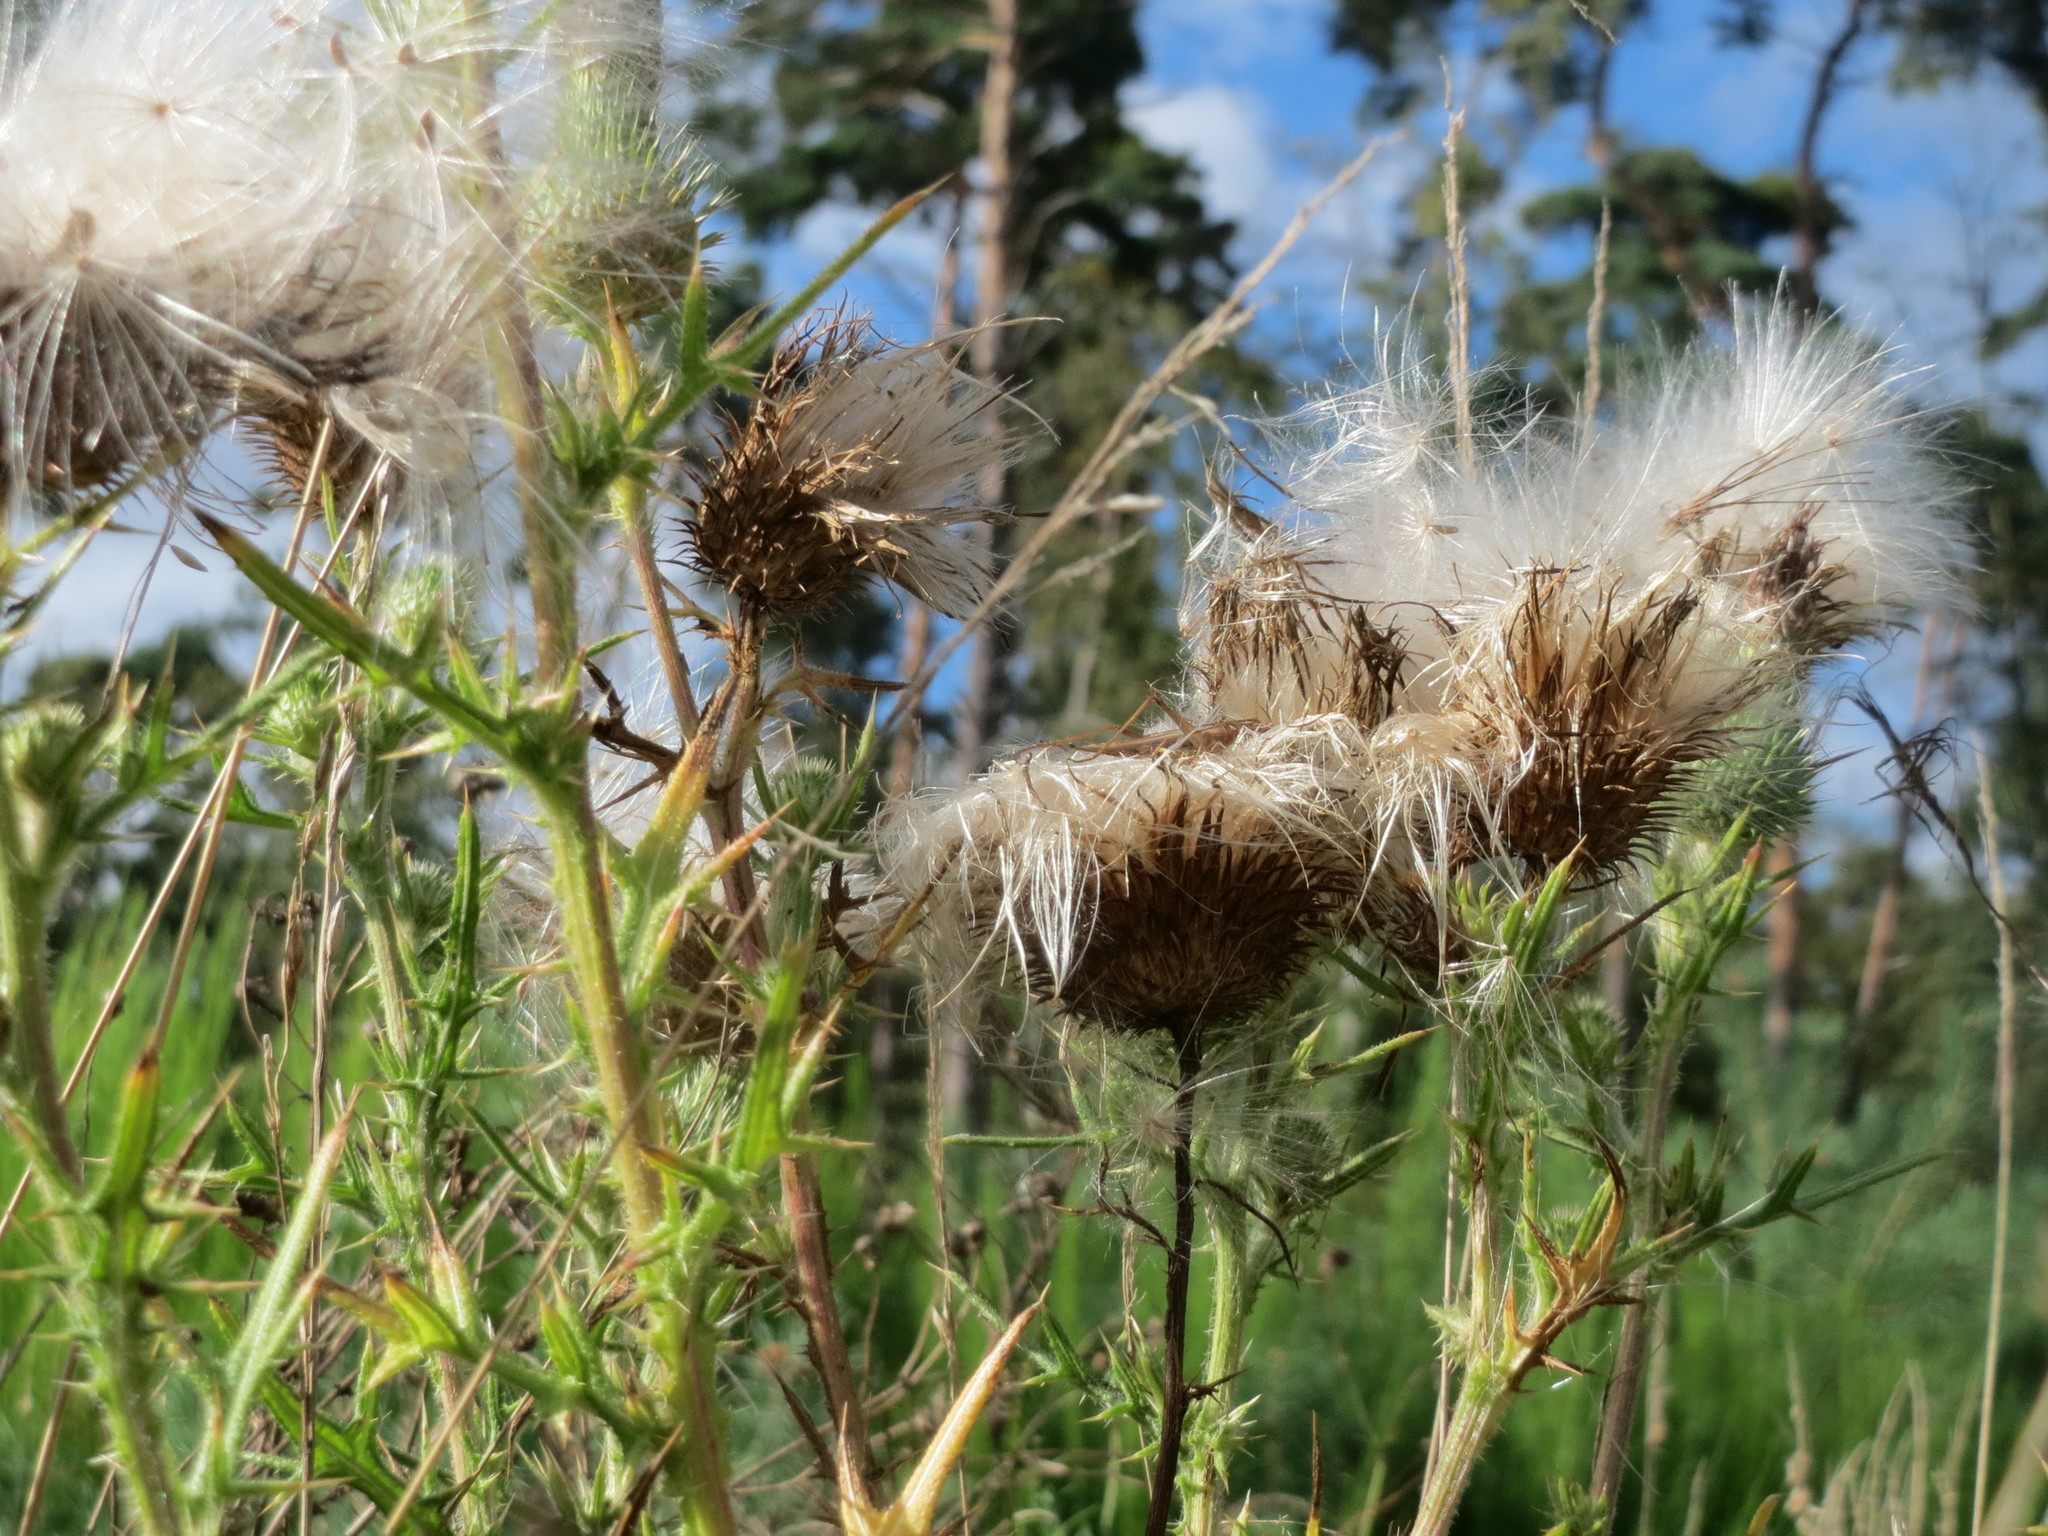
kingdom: Plantae
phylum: Tracheophyta
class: Magnoliopsida
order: Asterales
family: Asteraceae
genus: Cirsium
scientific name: Cirsium vulgare
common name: Bull thistle
